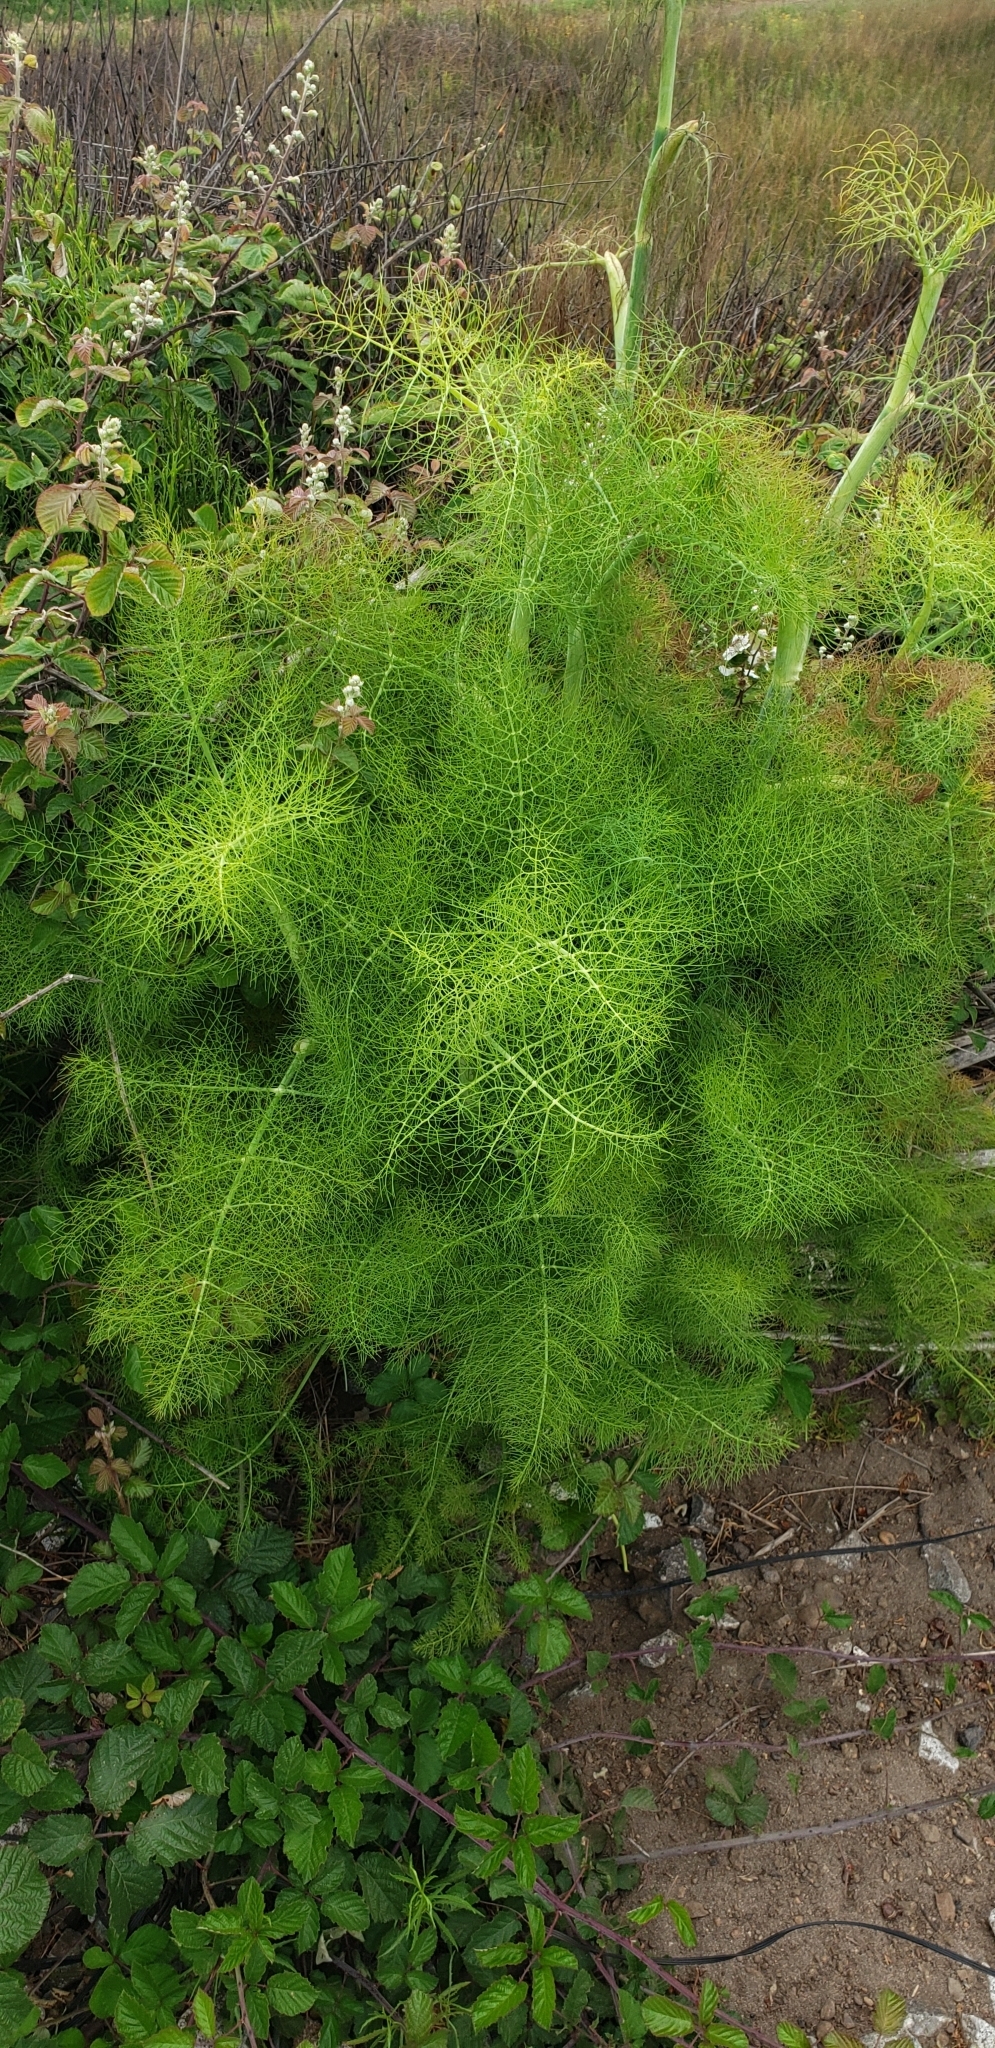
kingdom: Plantae
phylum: Tracheophyta
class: Magnoliopsida
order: Apiales
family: Apiaceae
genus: Foeniculum
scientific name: Foeniculum vulgare
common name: Fennel
